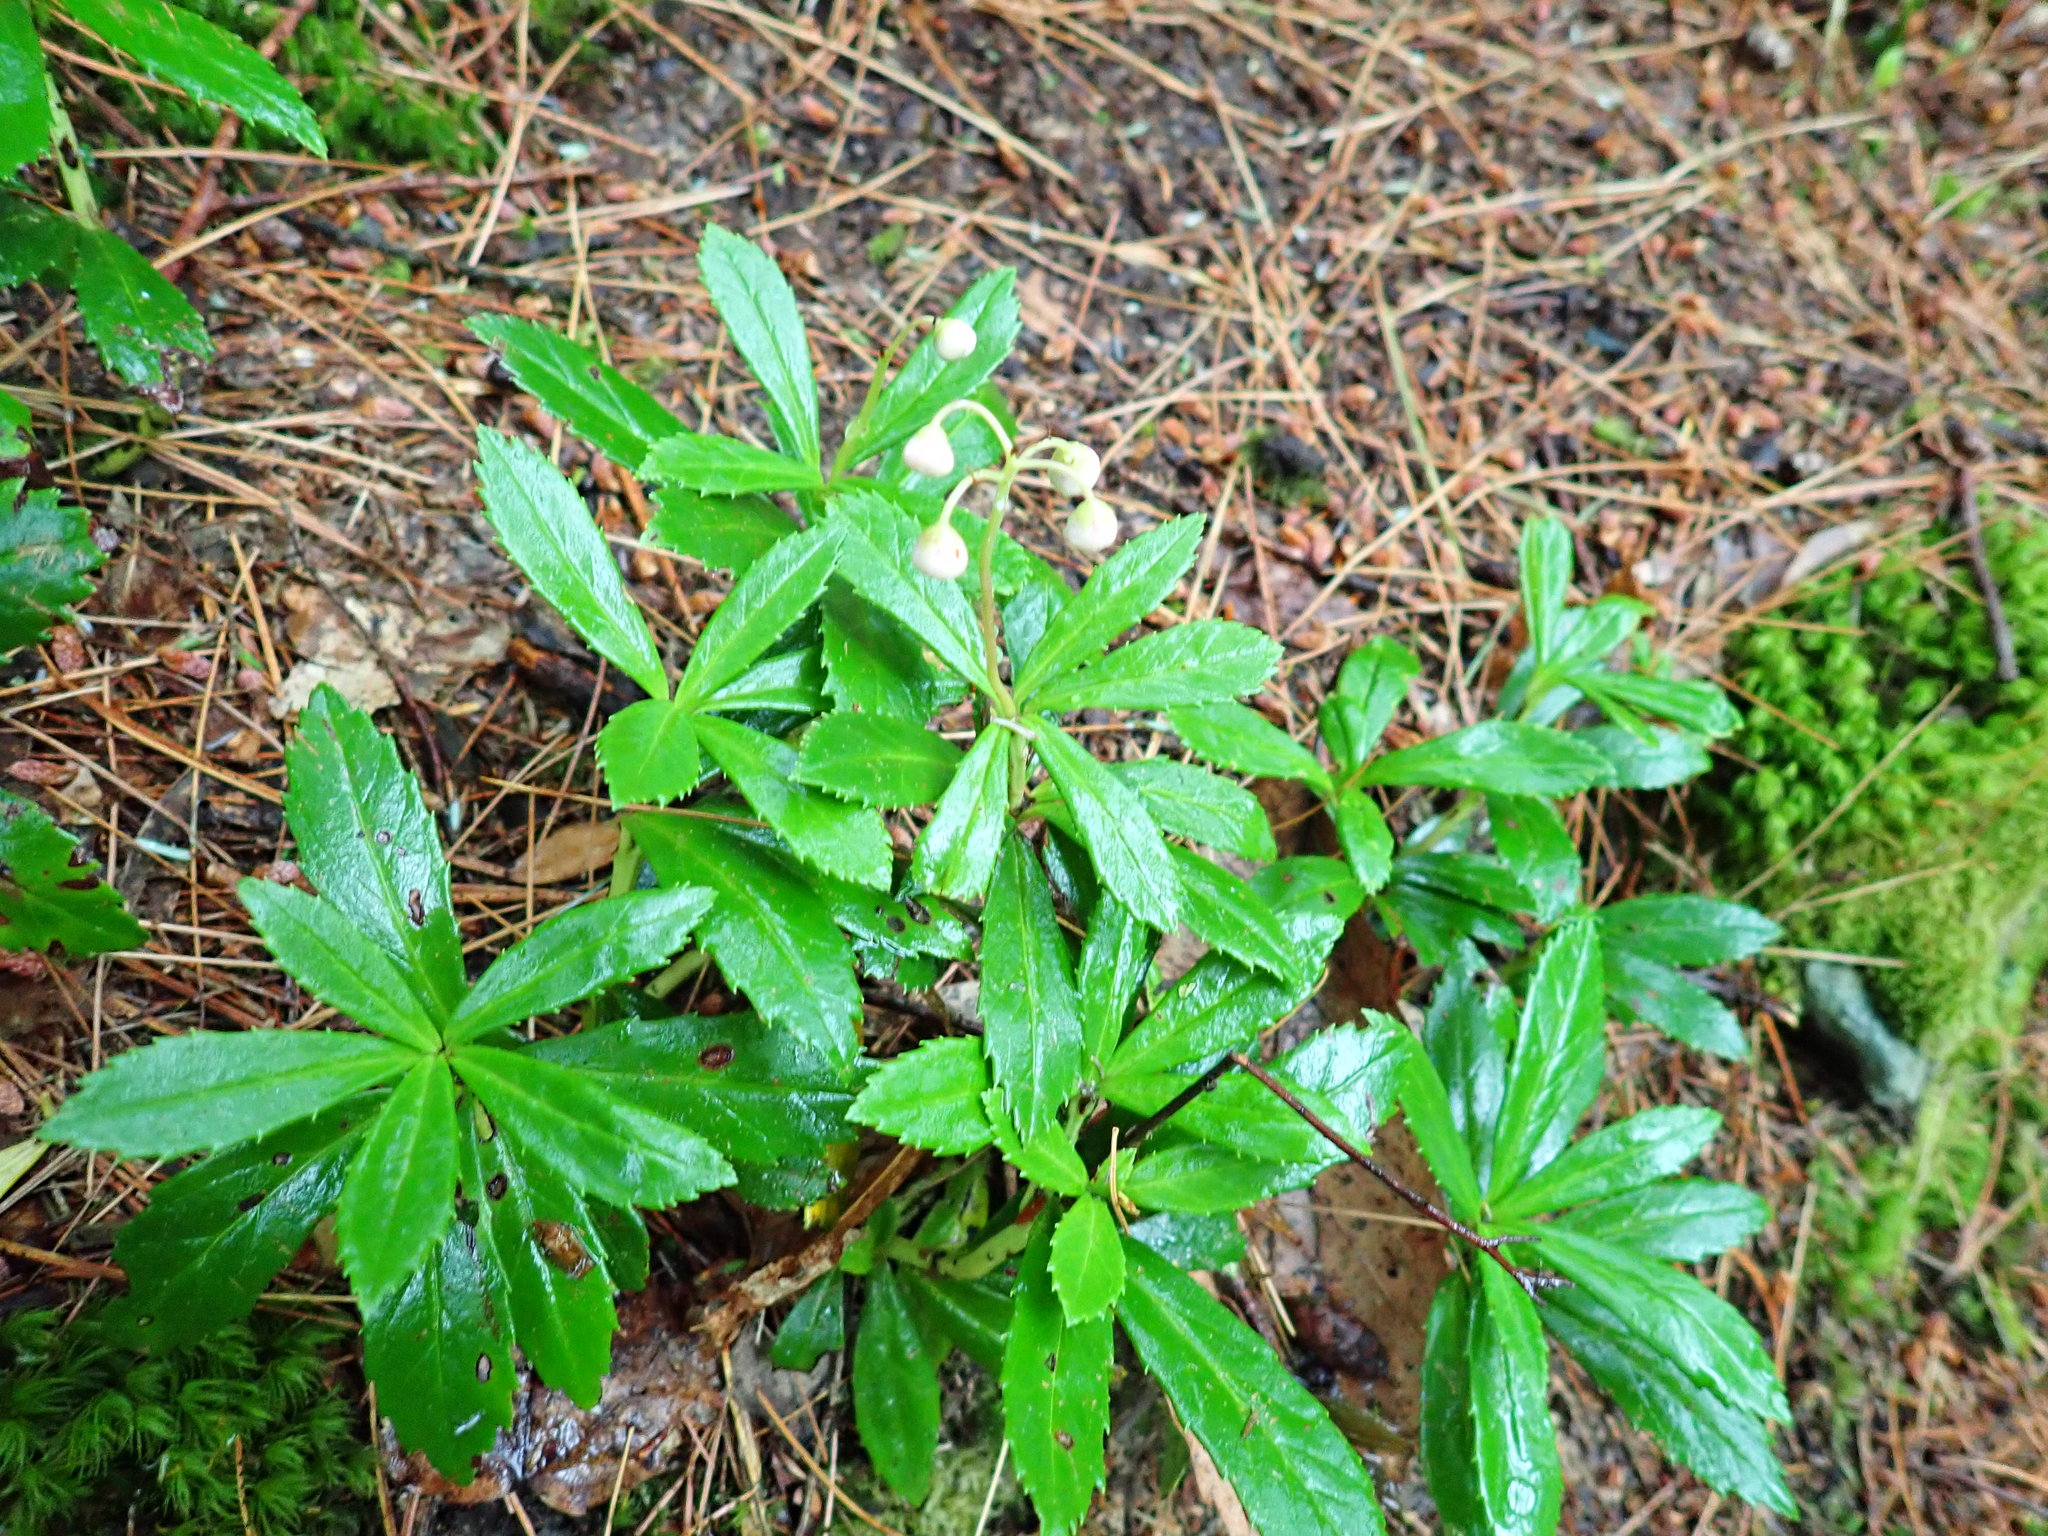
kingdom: Plantae
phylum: Tracheophyta
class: Magnoliopsida
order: Ericales
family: Ericaceae
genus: Chimaphila
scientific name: Chimaphila umbellata
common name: Pipsissewa
